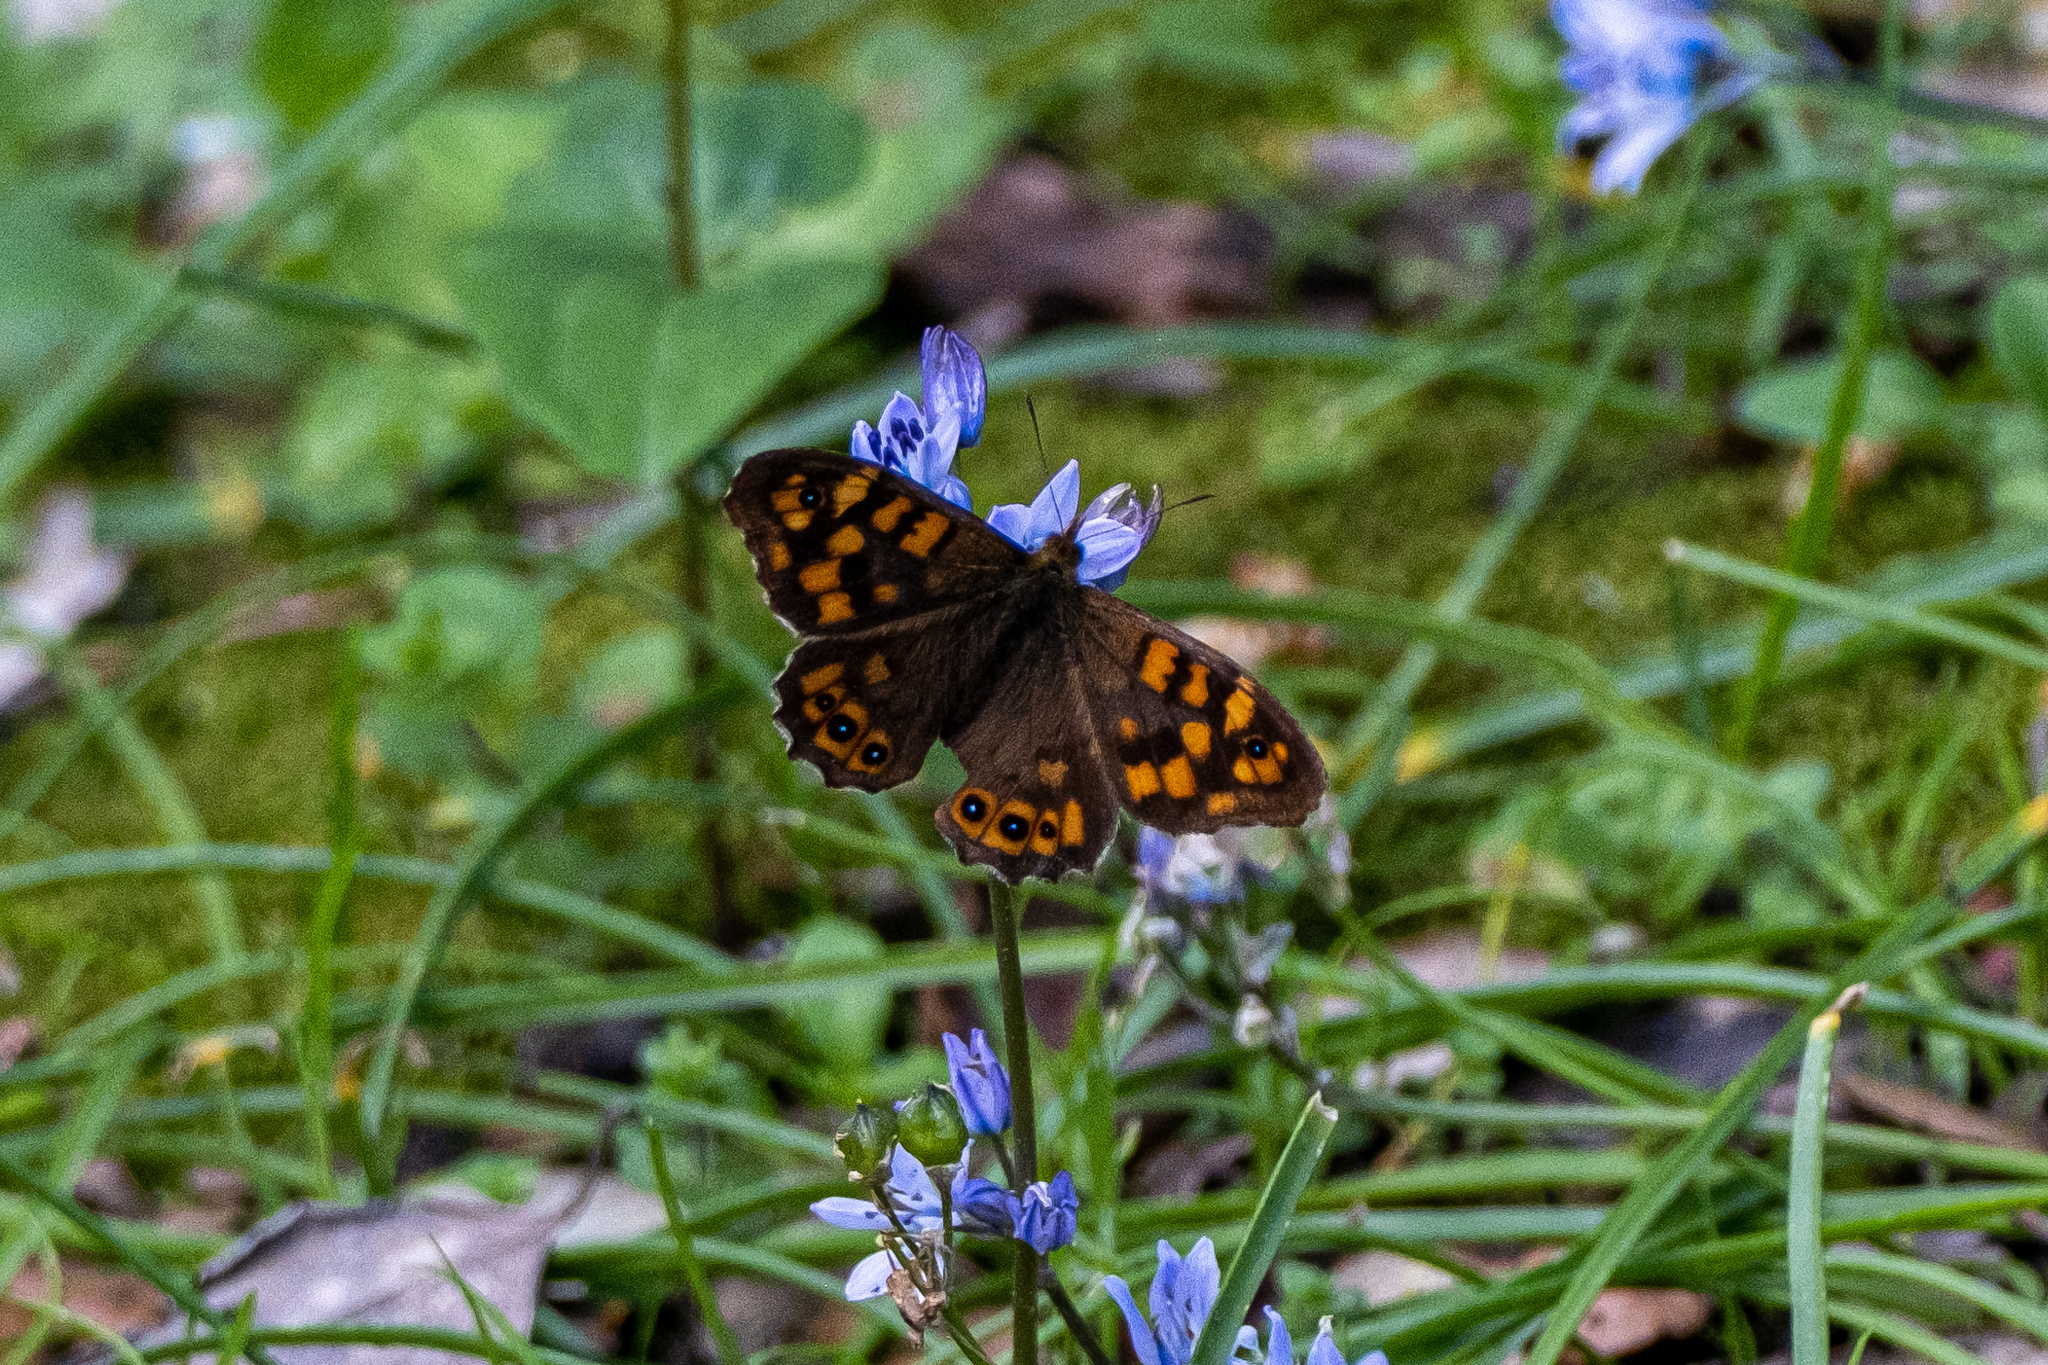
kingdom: Animalia
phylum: Arthropoda
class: Insecta
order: Lepidoptera
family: Nymphalidae
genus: Pararge
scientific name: Pararge aegeria
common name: Speckled wood
